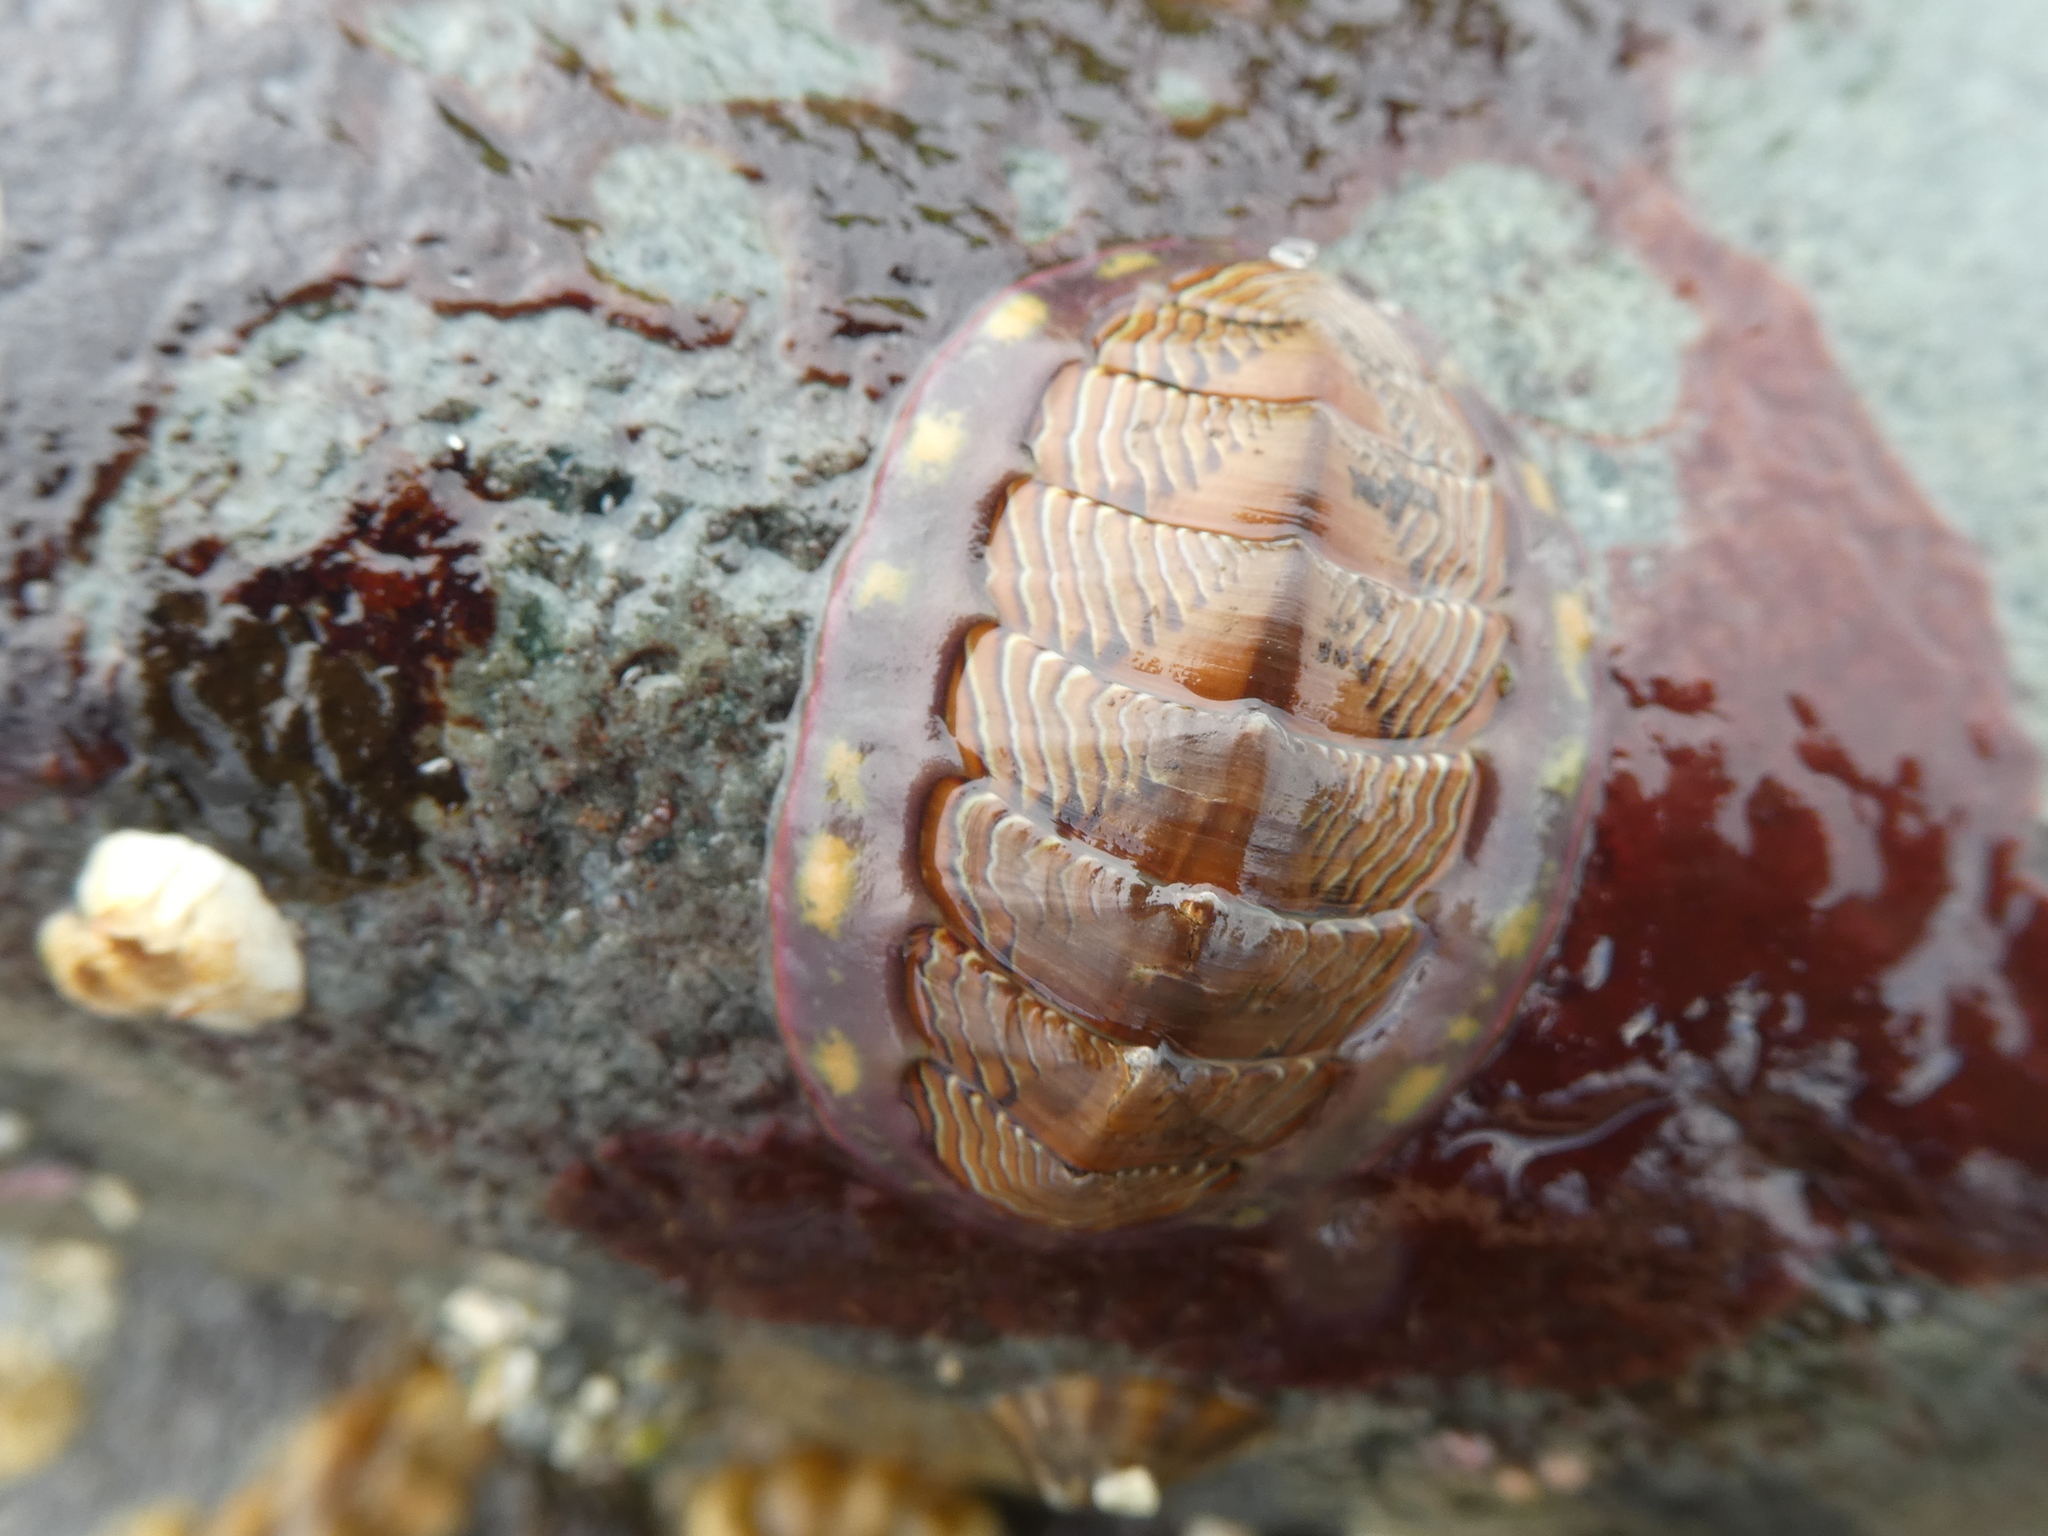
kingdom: Animalia
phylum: Mollusca
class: Polyplacophora
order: Chitonida
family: Tonicellidae
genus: Tonicella
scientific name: Tonicella lineata
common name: Lined chiton
